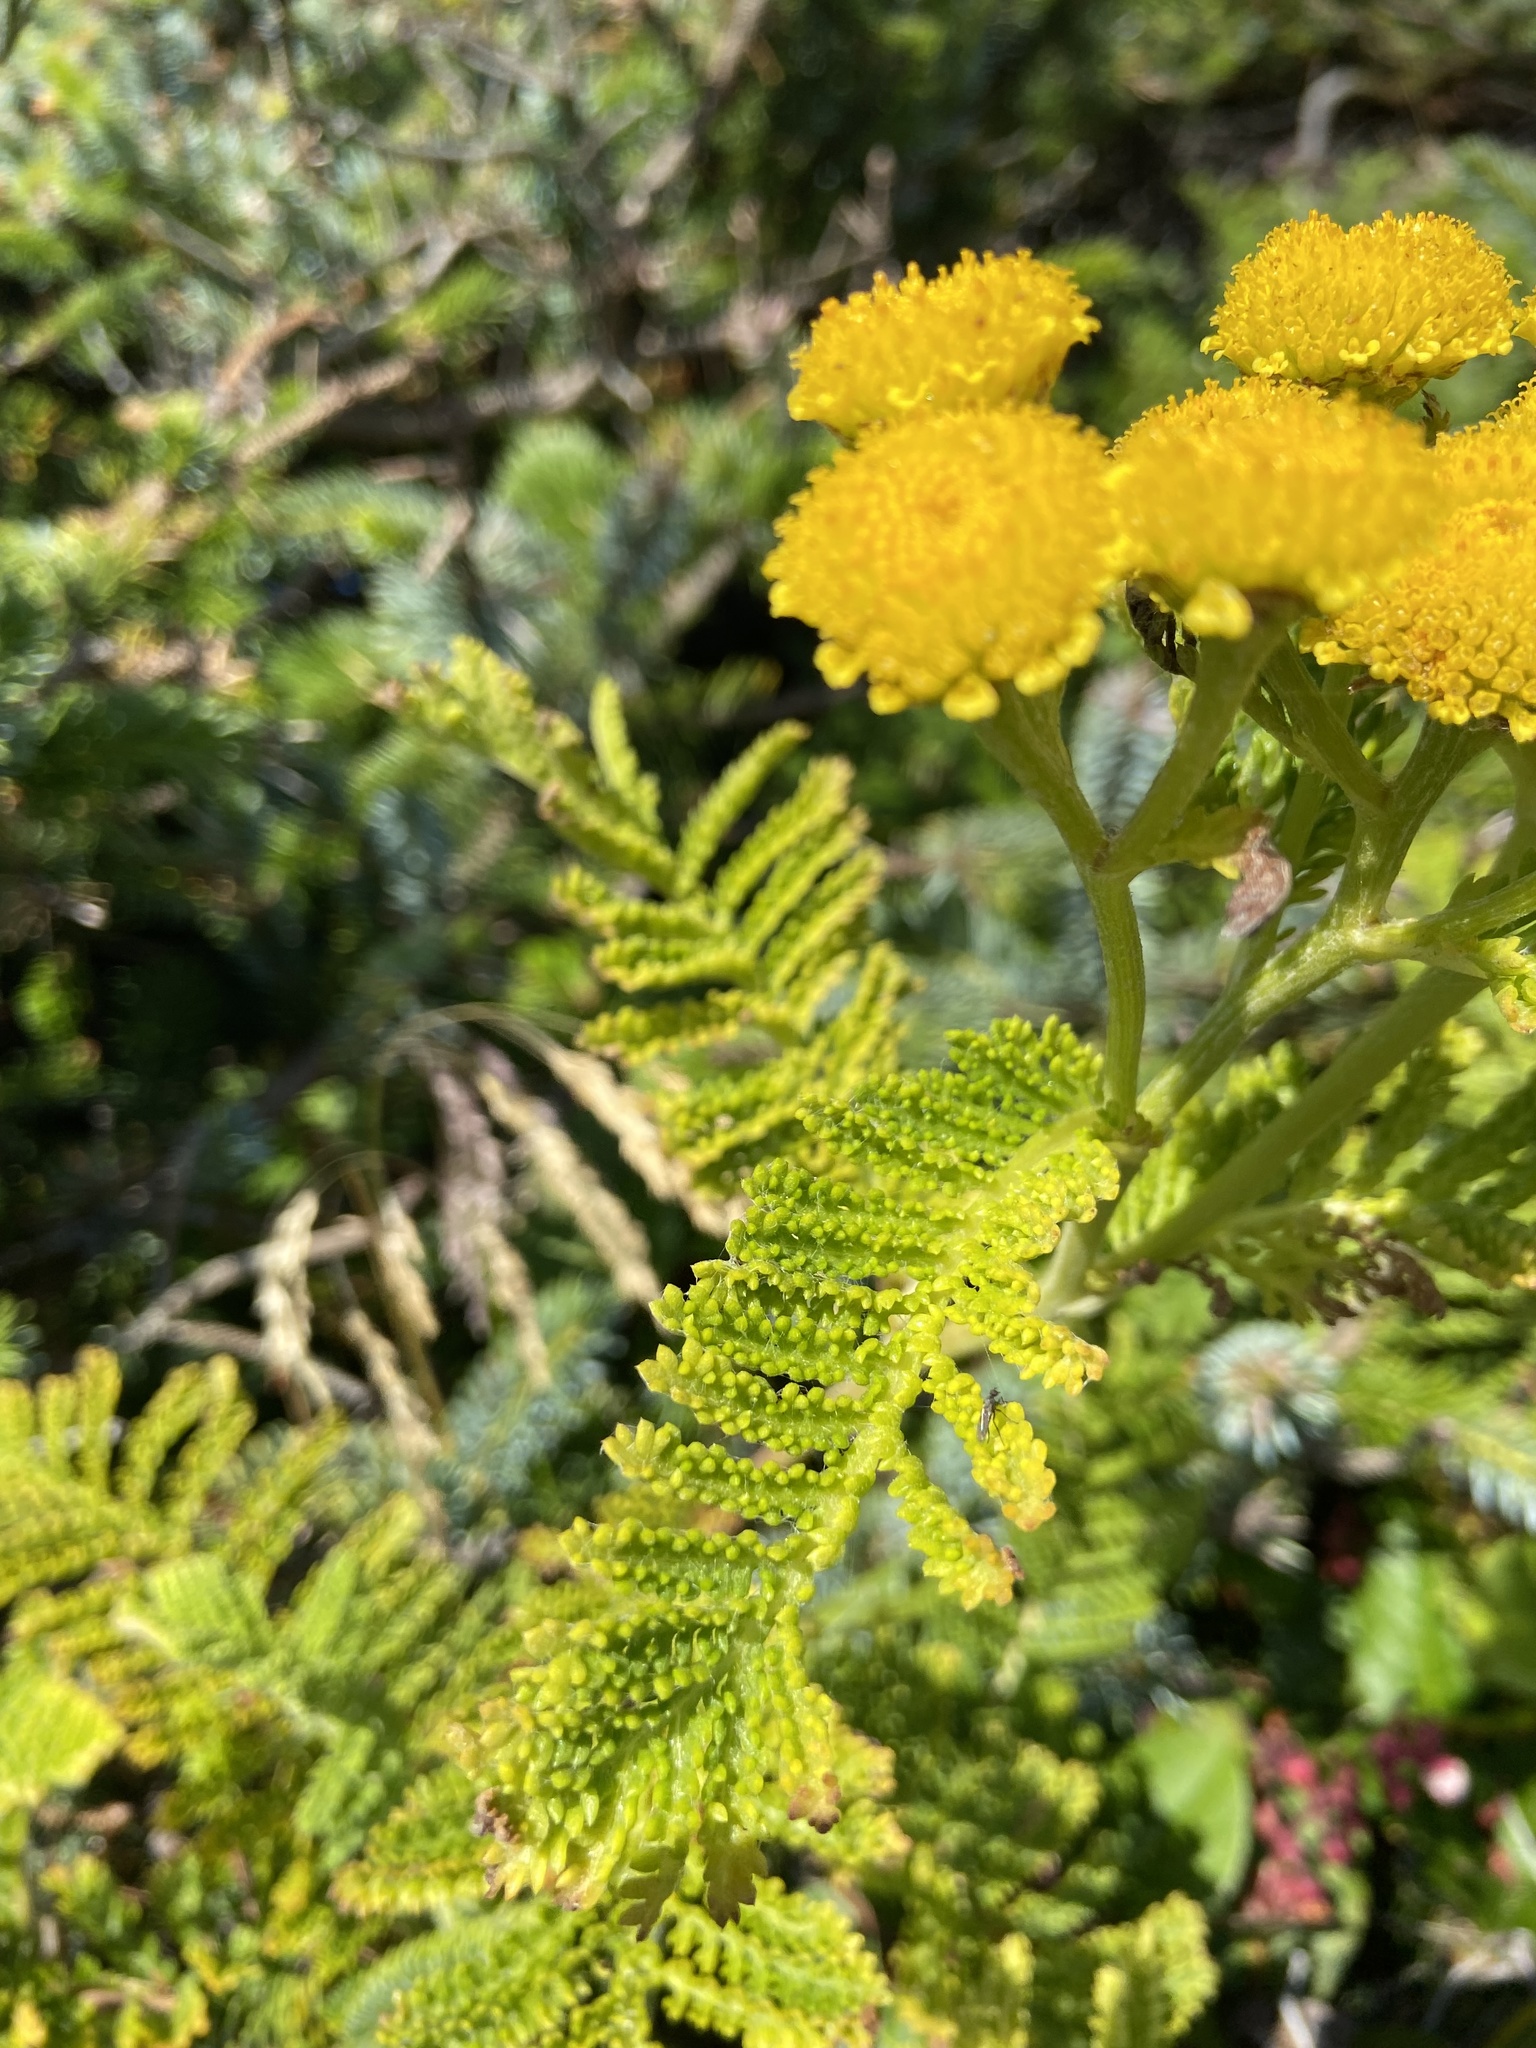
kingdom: Plantae
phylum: Tracheophyta
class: Magnoliopsida
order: Asterales
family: Asteraceae
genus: Tanacetum
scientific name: Tanacetum bipinnatum
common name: Dwarf tansy
